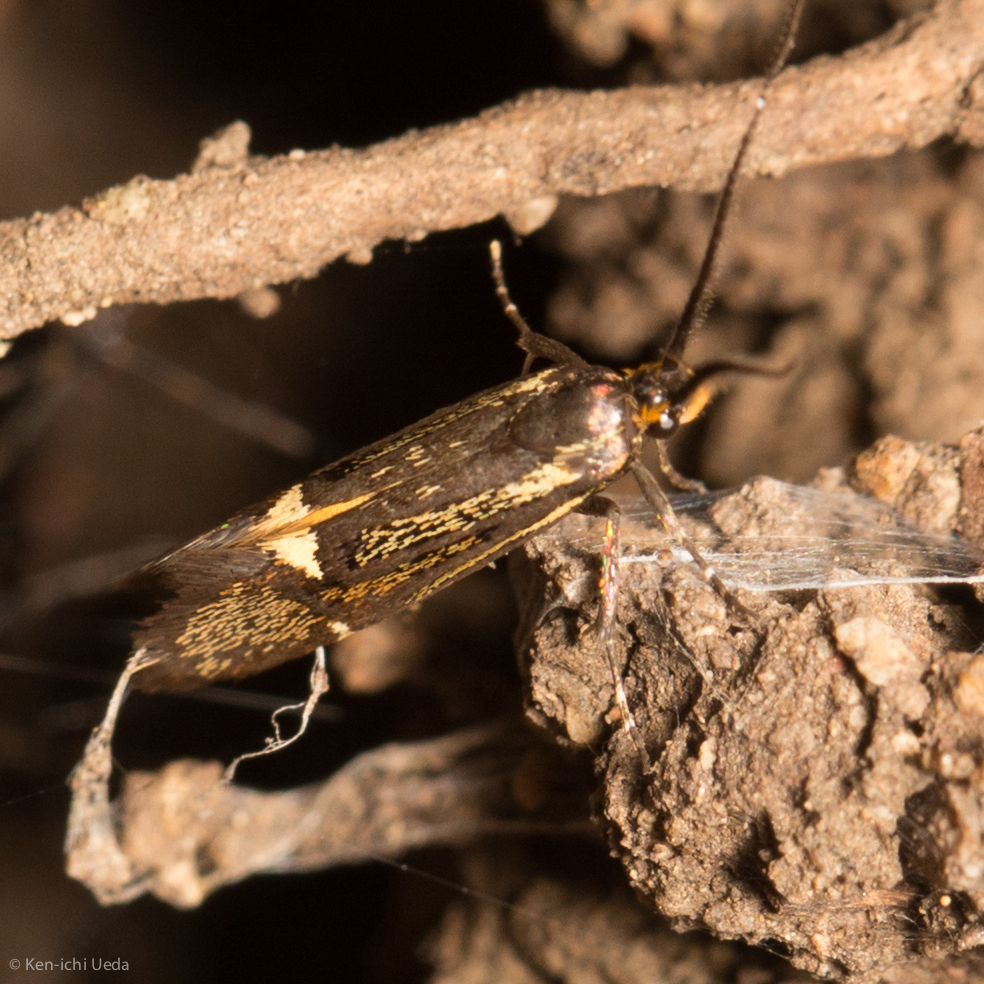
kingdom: Animalia
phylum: Arthropoda
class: Insecta
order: Lepidoptera
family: Oecophoridae
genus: Dafa
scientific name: Dafa Esperia sulphurella
